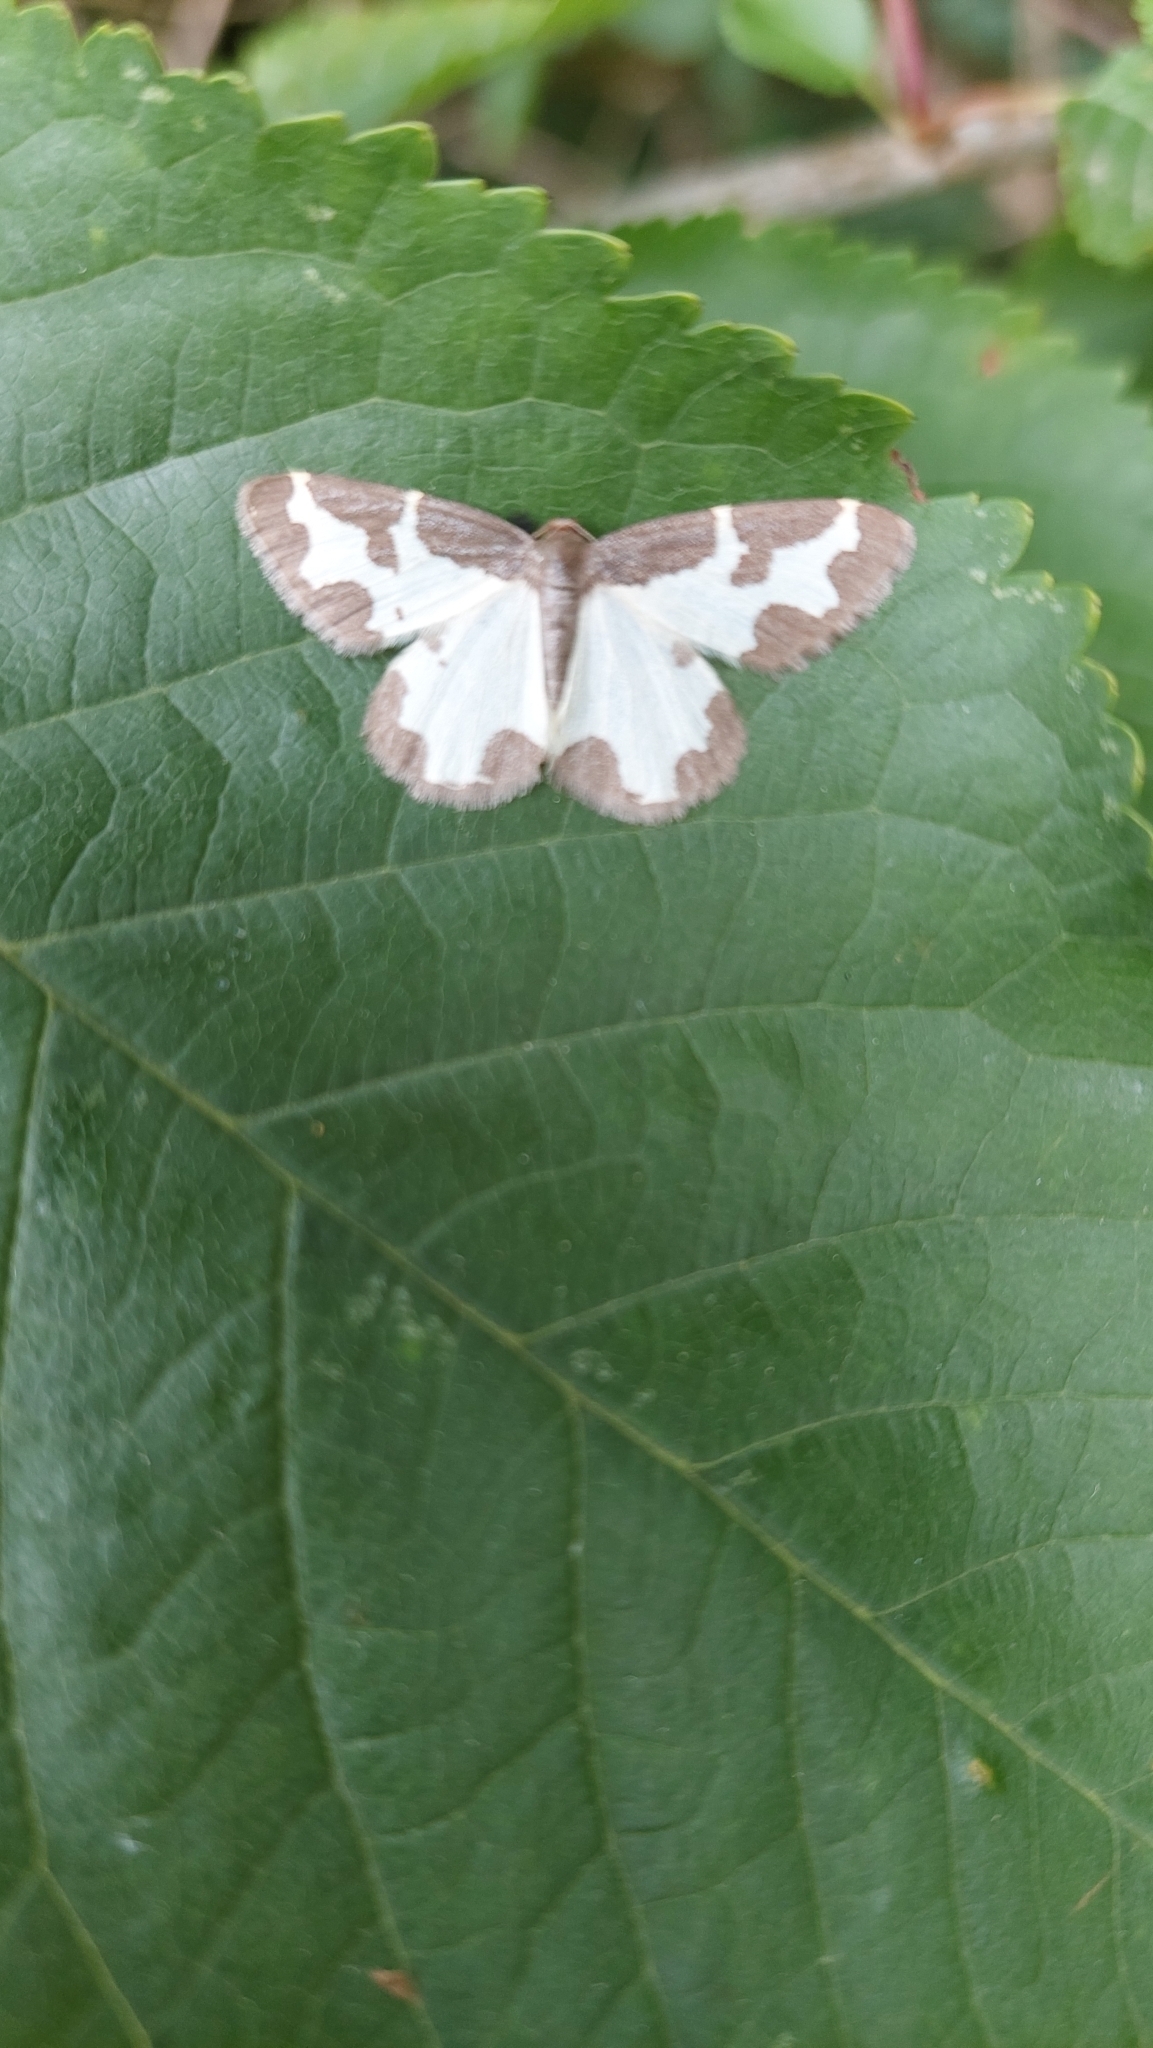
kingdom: Animalia
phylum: Arthropoda
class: Insecta
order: Lepidoptera
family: Geometridae
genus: Lomaspilis
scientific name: Lomaspilis marginata
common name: Clouded border
